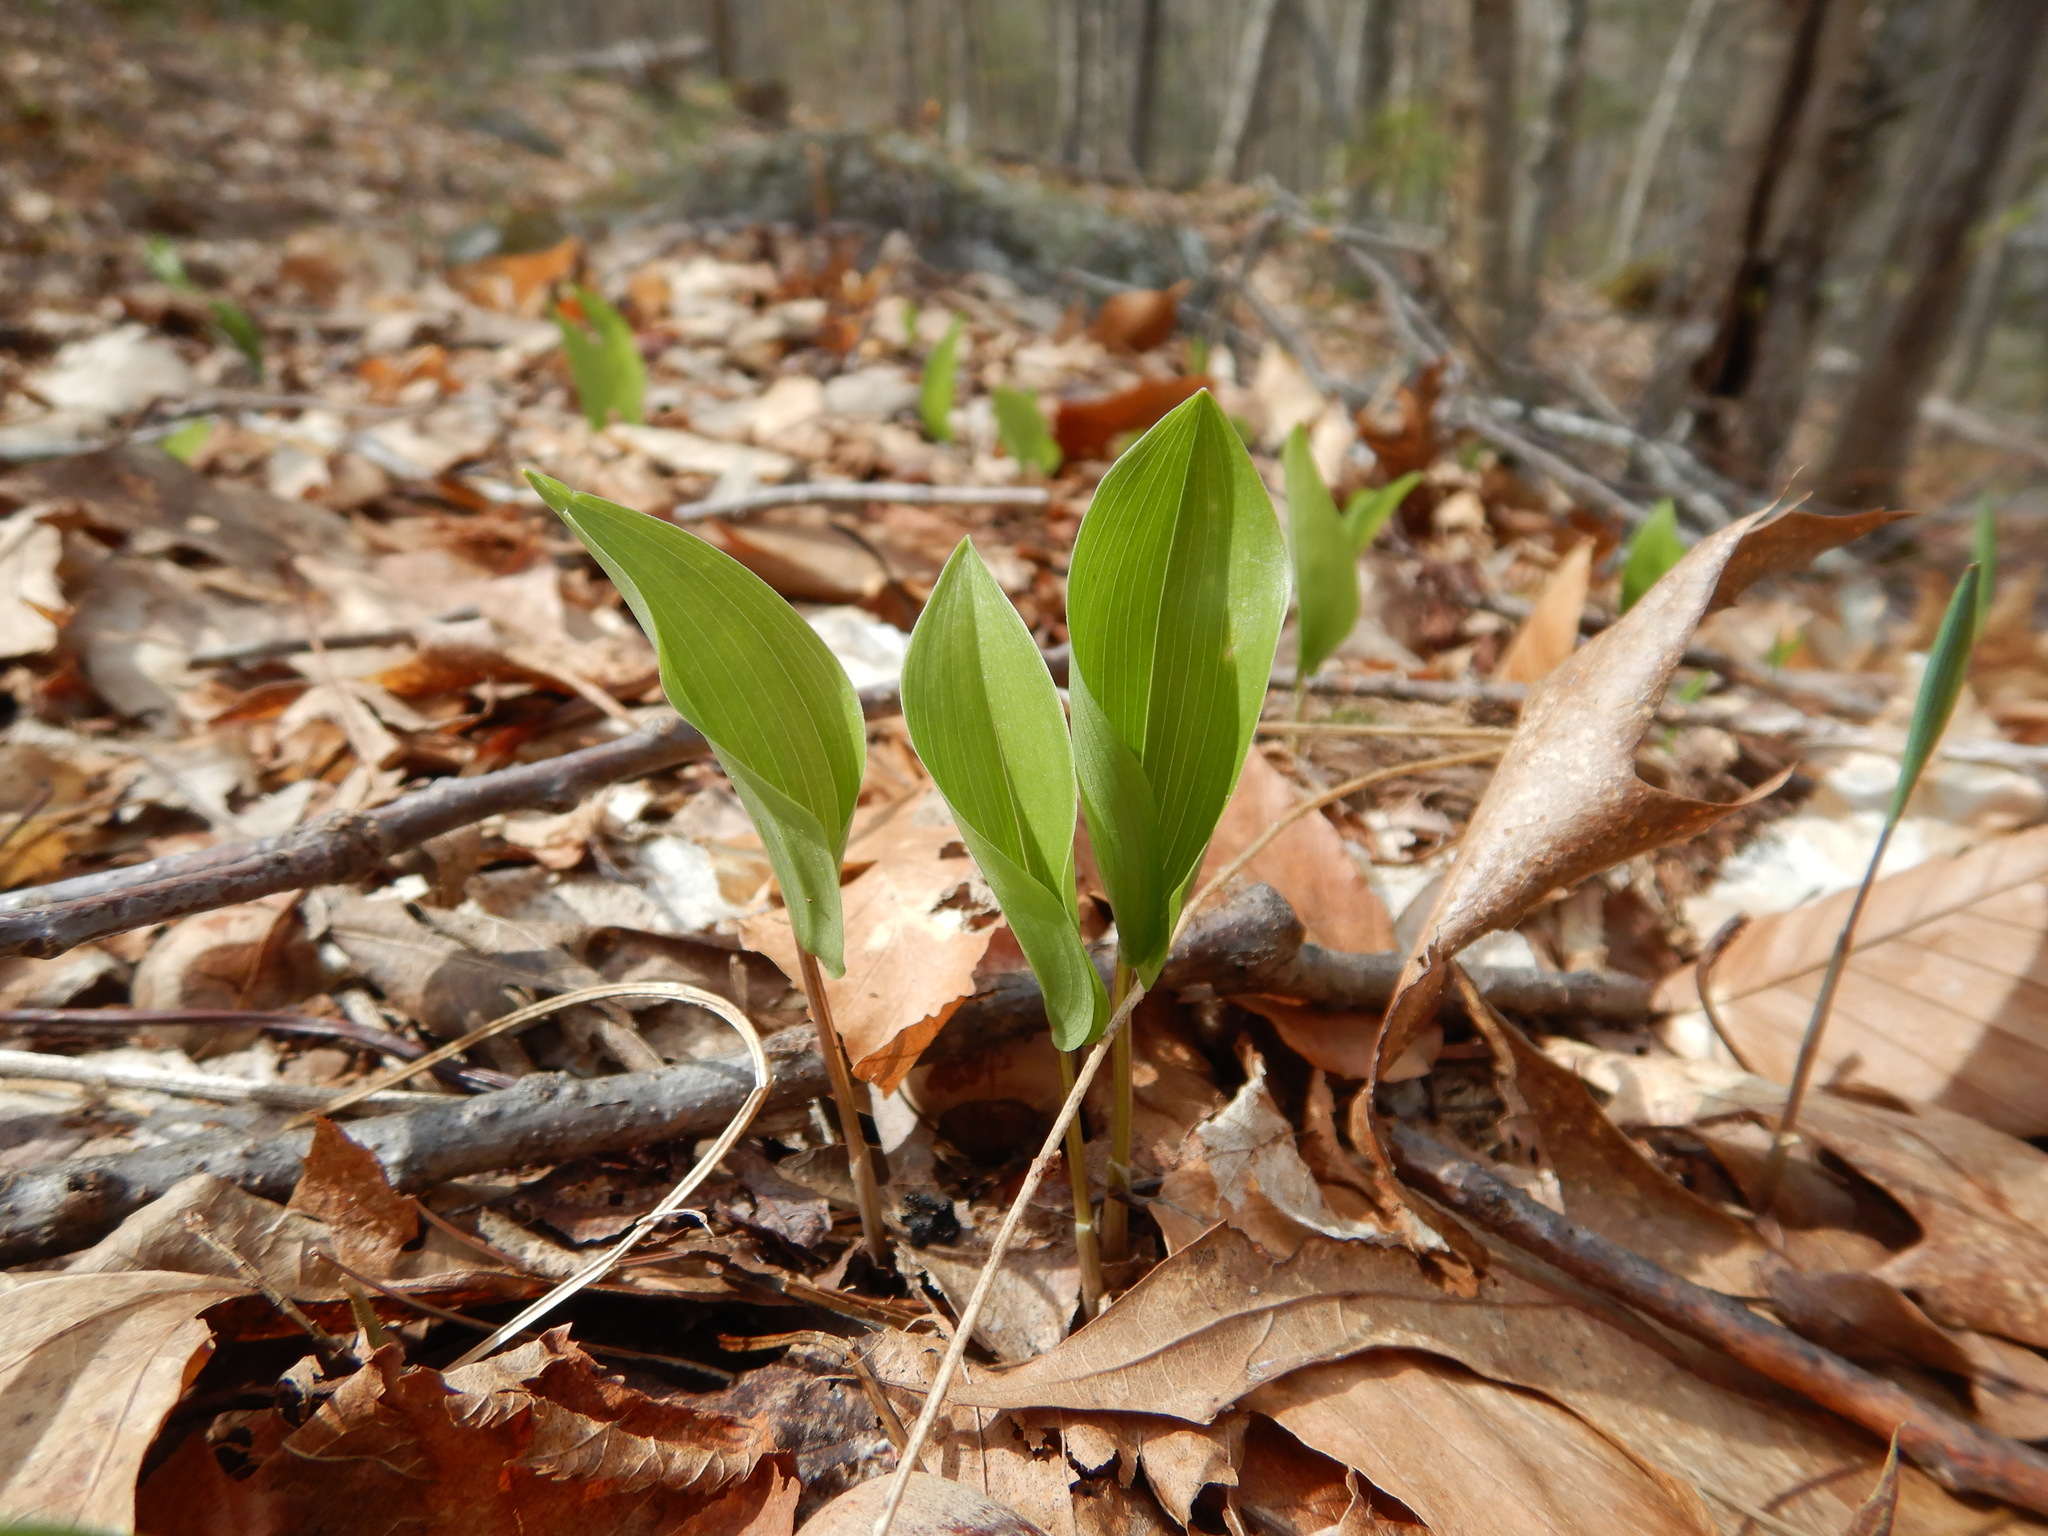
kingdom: Plantae
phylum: Tracheophyta
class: Liliopsida
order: Asparagales
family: Asparagaceae
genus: Maianthemum
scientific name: Maianthemum canadense
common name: False lily-of-the-valley
